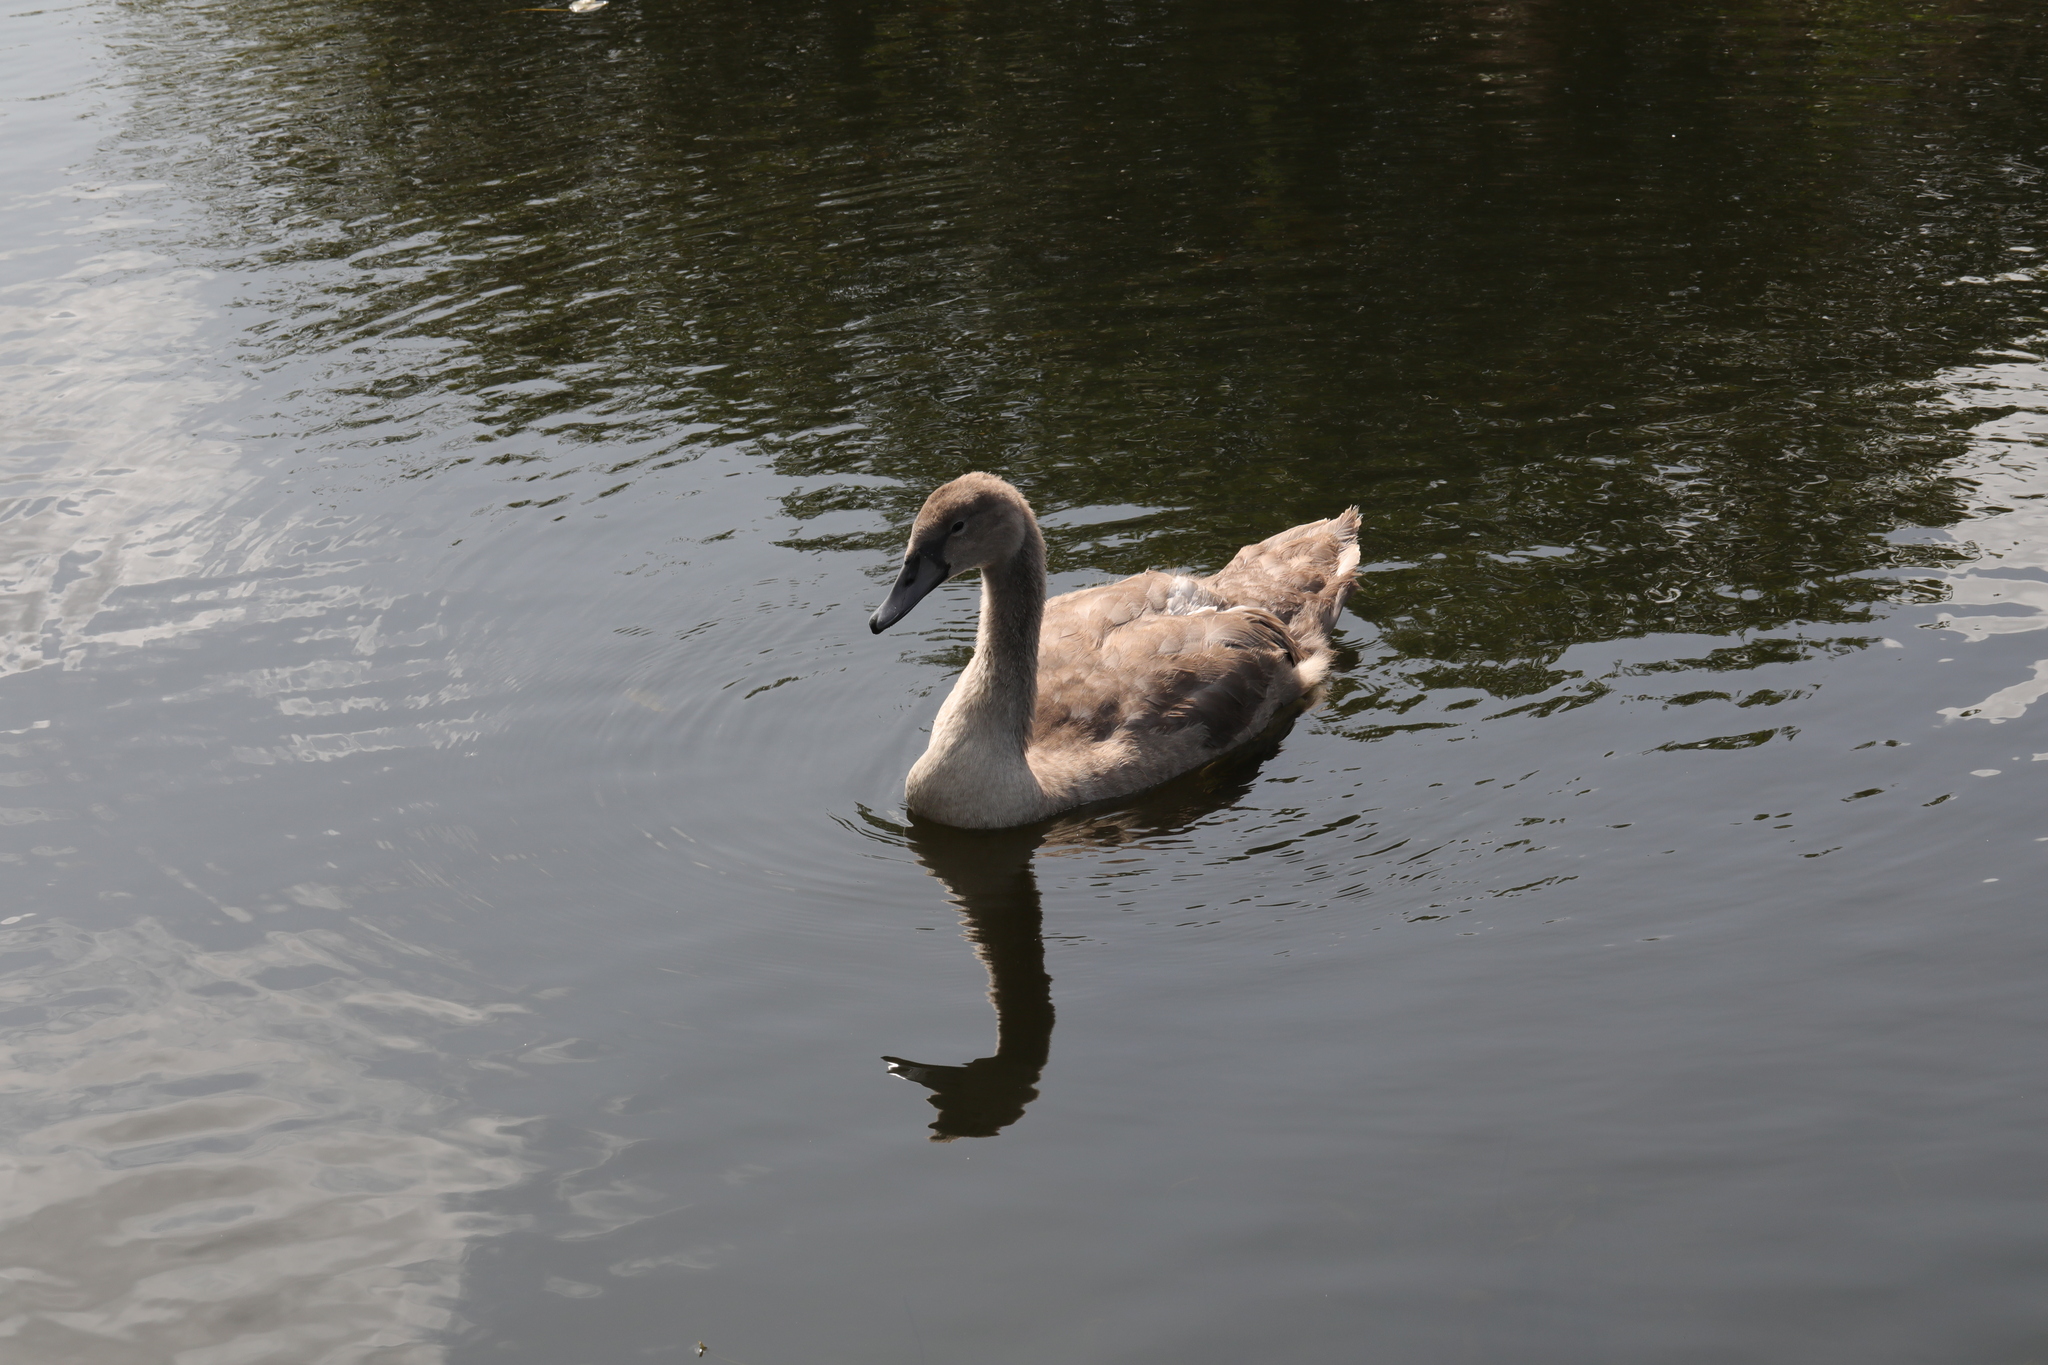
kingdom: Animalia
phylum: Chordata
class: Aves
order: Anseriformes
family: Anatidae
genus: Cygnus
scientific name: Cygnus olor
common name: Mute swan
